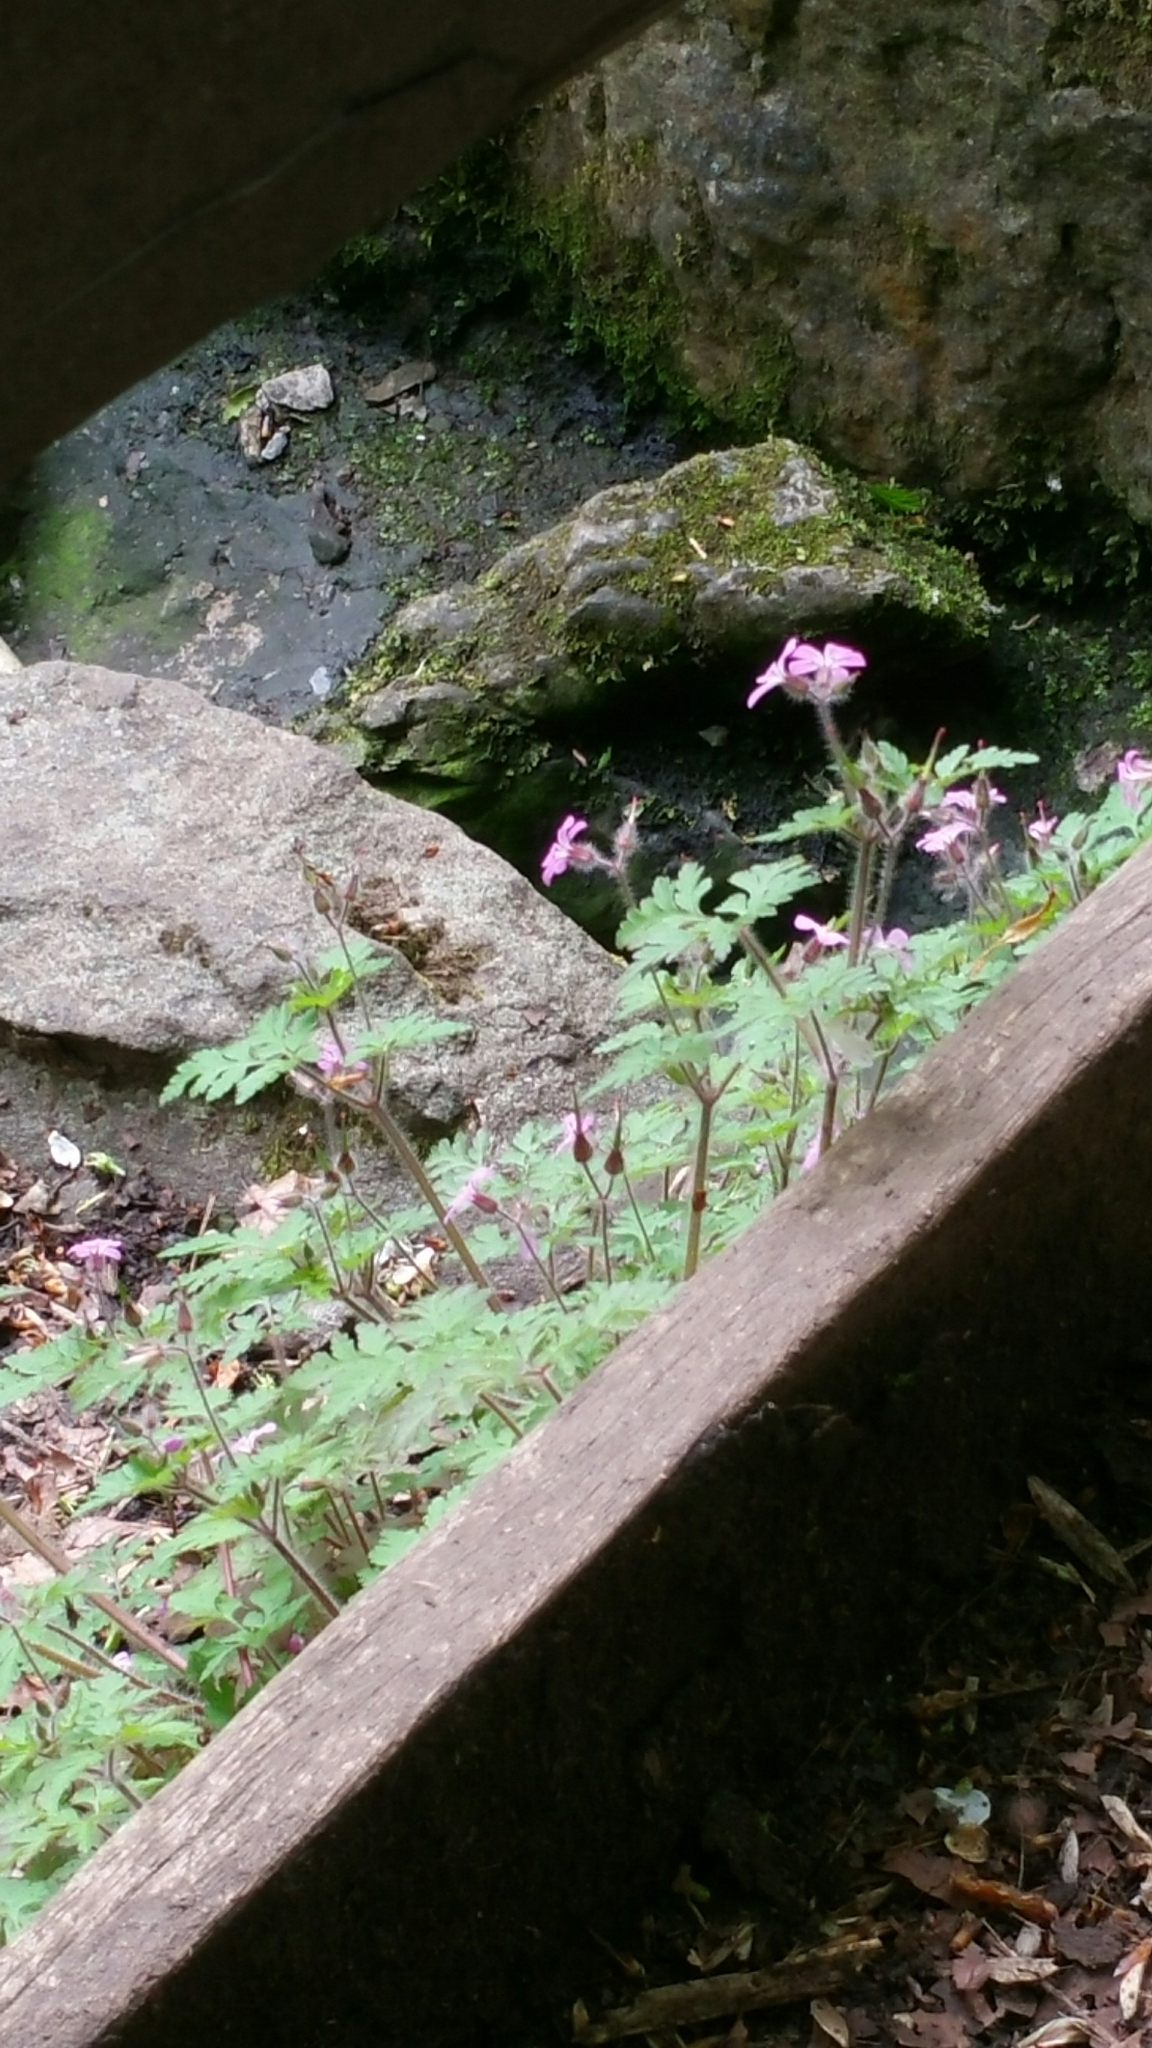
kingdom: Plantae
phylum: Tracheophyta
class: Magnoliopsida
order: Geraniales
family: Geraniaceae
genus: Geranium
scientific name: Geranium robertianum
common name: Herb-robert
